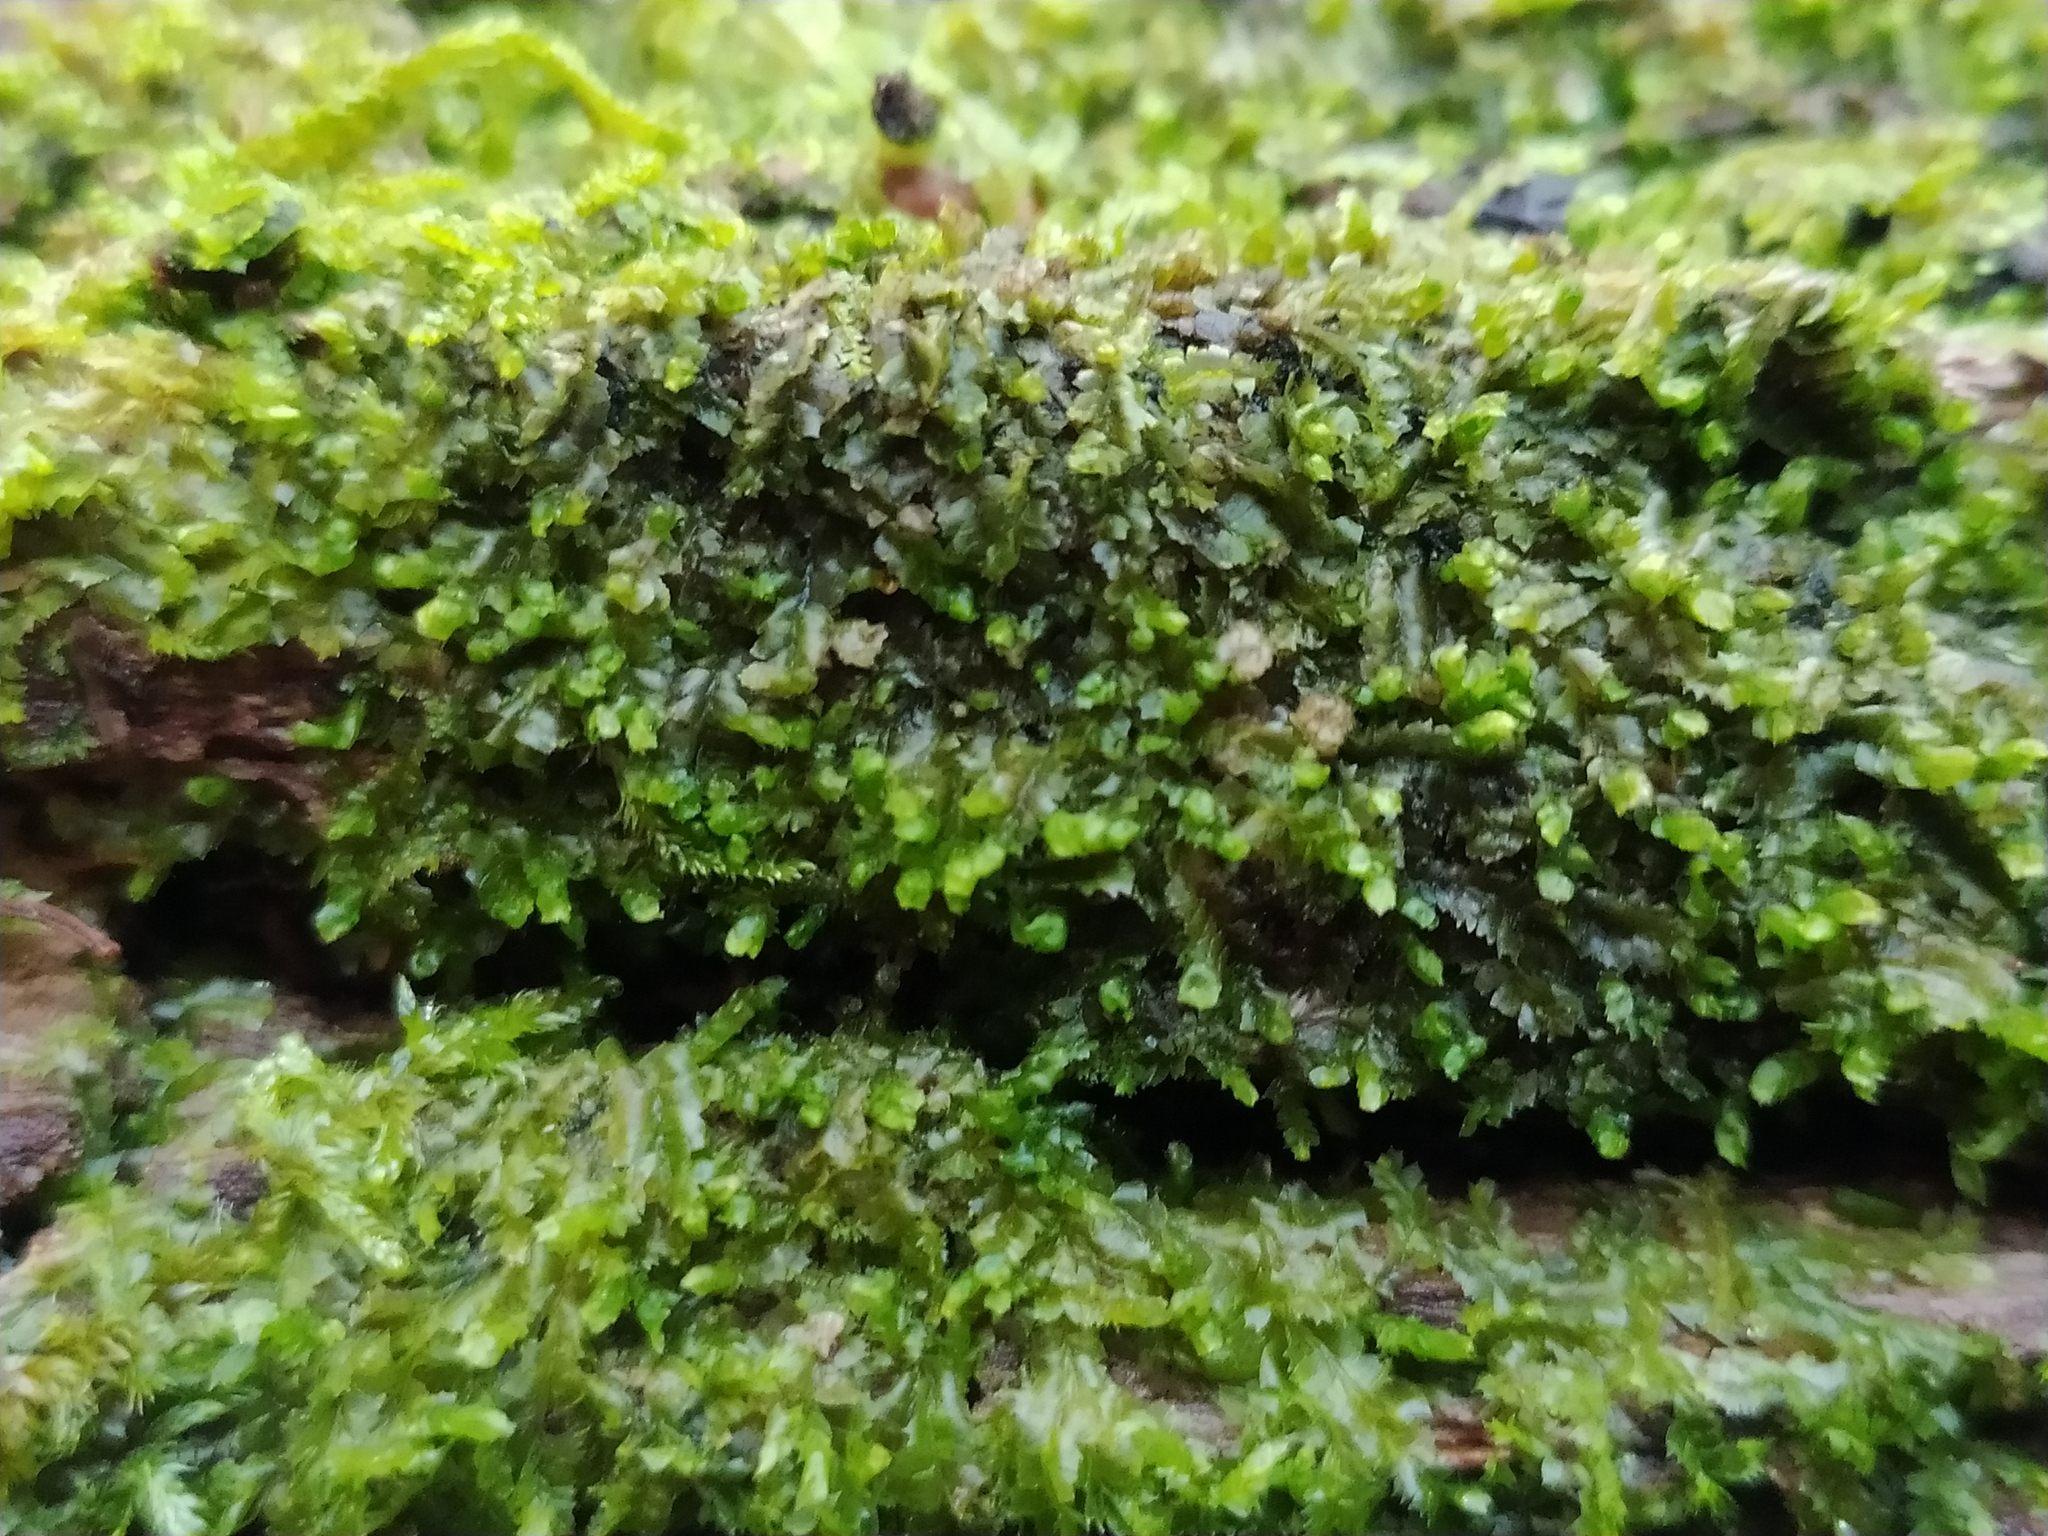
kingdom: Plantae
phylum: Marchantiophyta
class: Jungermanniopsida
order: Jungermanniales
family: Lophocoleaceae
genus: Lophocolea
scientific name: Lophocolea heterophylla
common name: Variable-leaved crestwort
